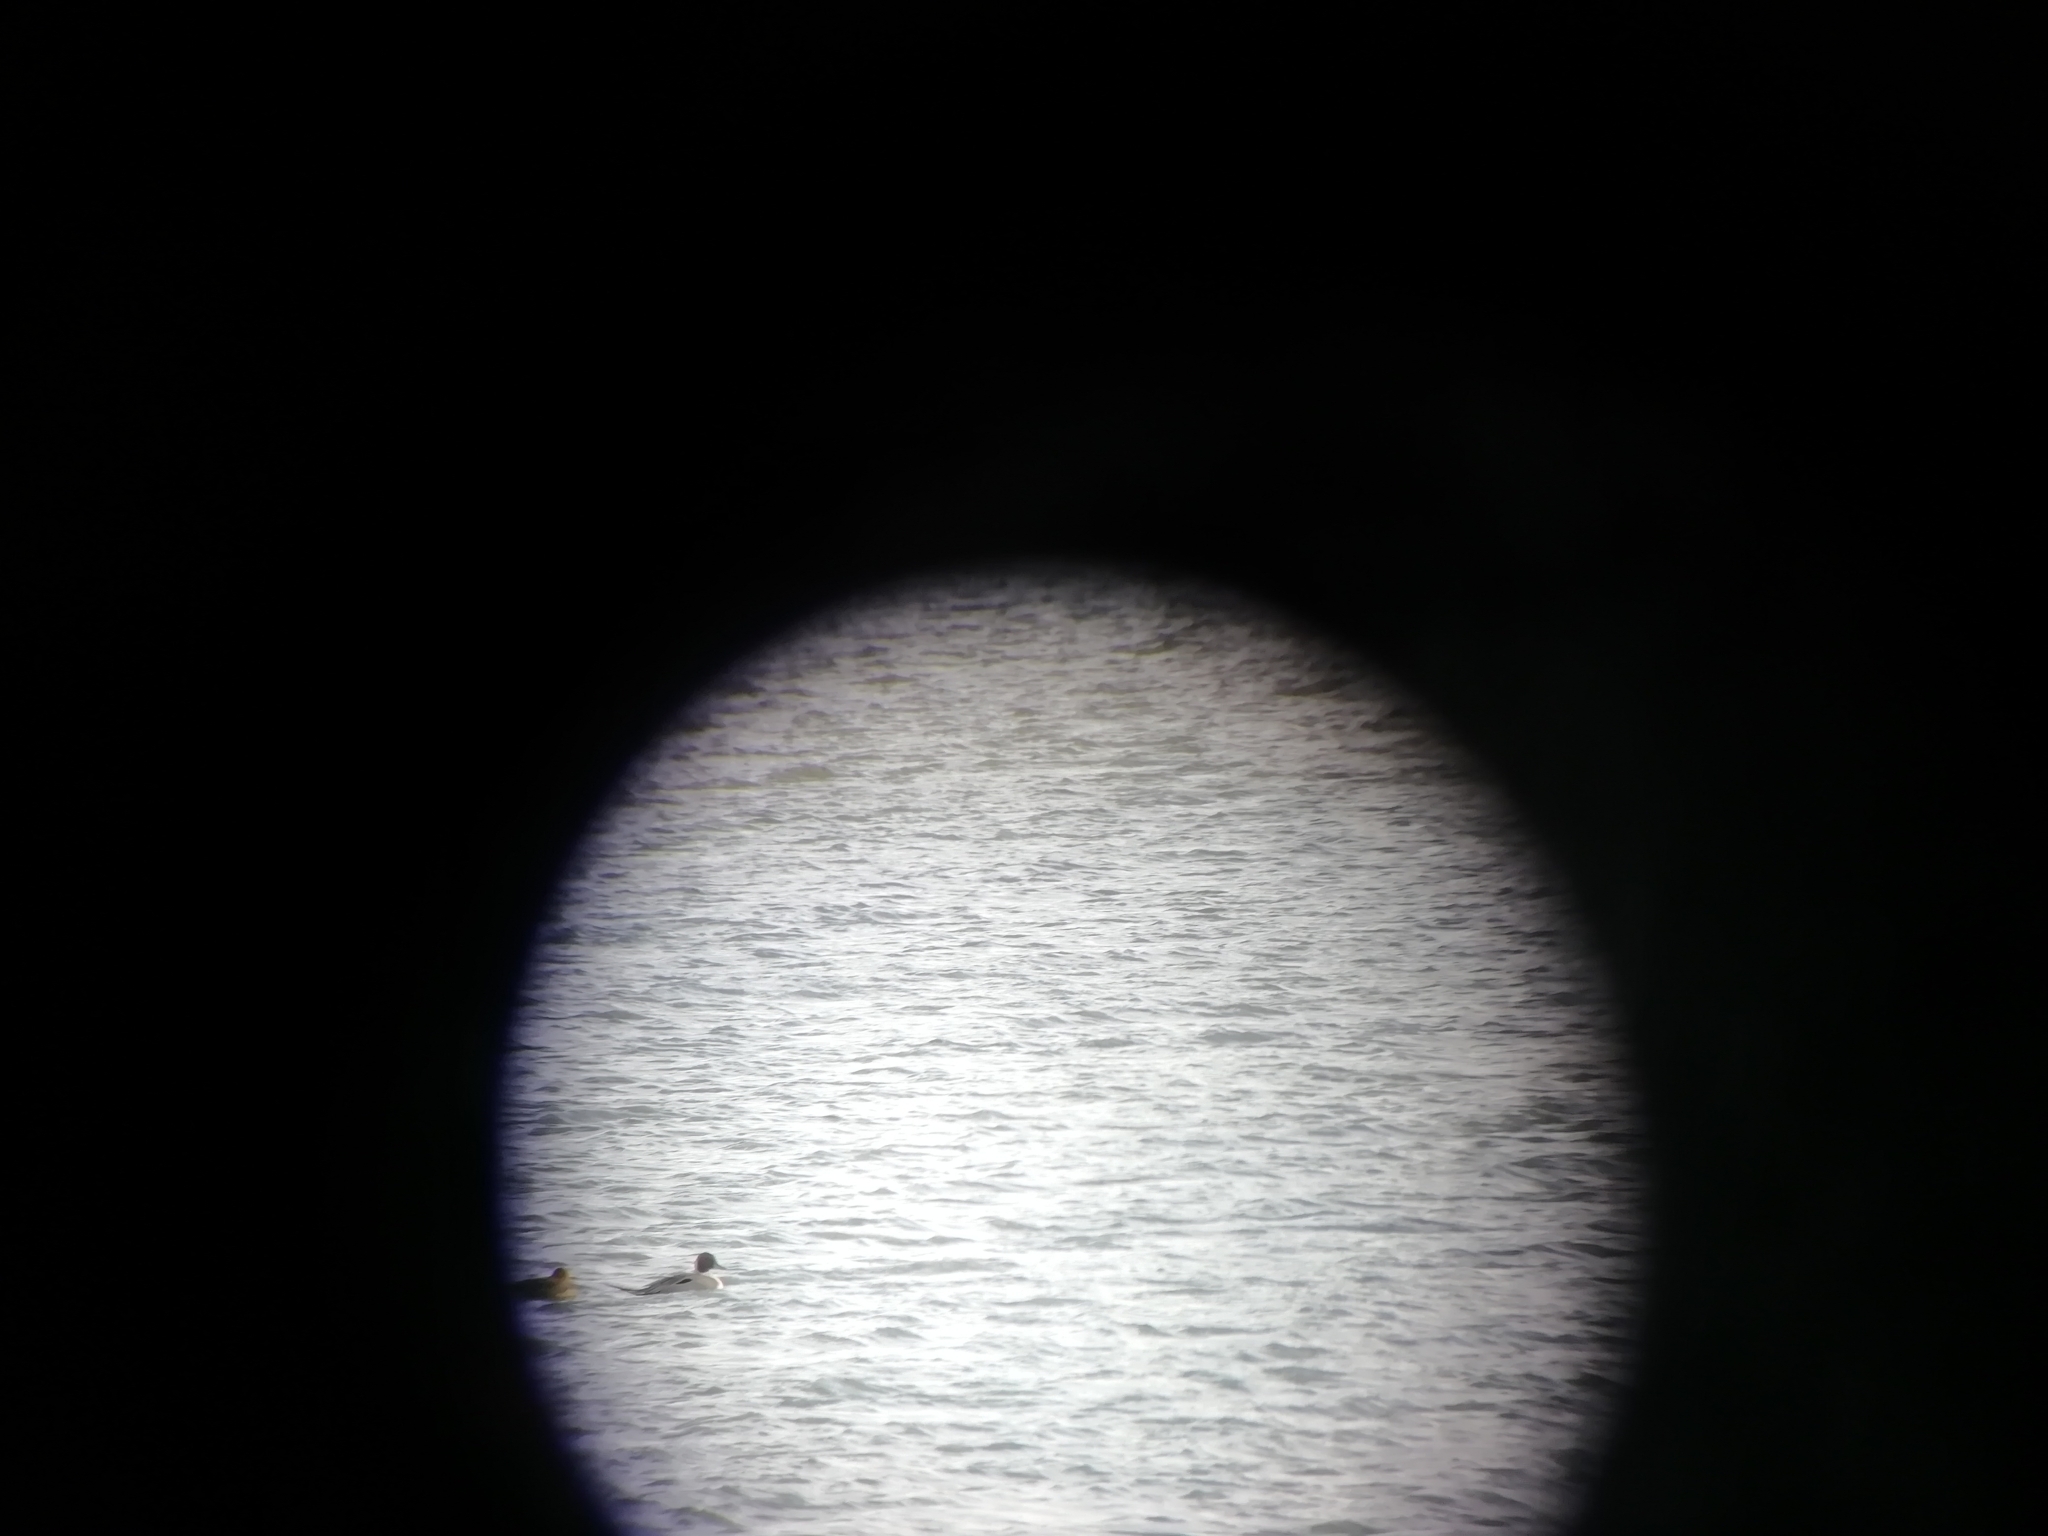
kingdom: Animalia
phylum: Chordata
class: Aves
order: Anseriformes
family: Anatidae
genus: Anas
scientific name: Anas acuta
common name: Northern pintail
